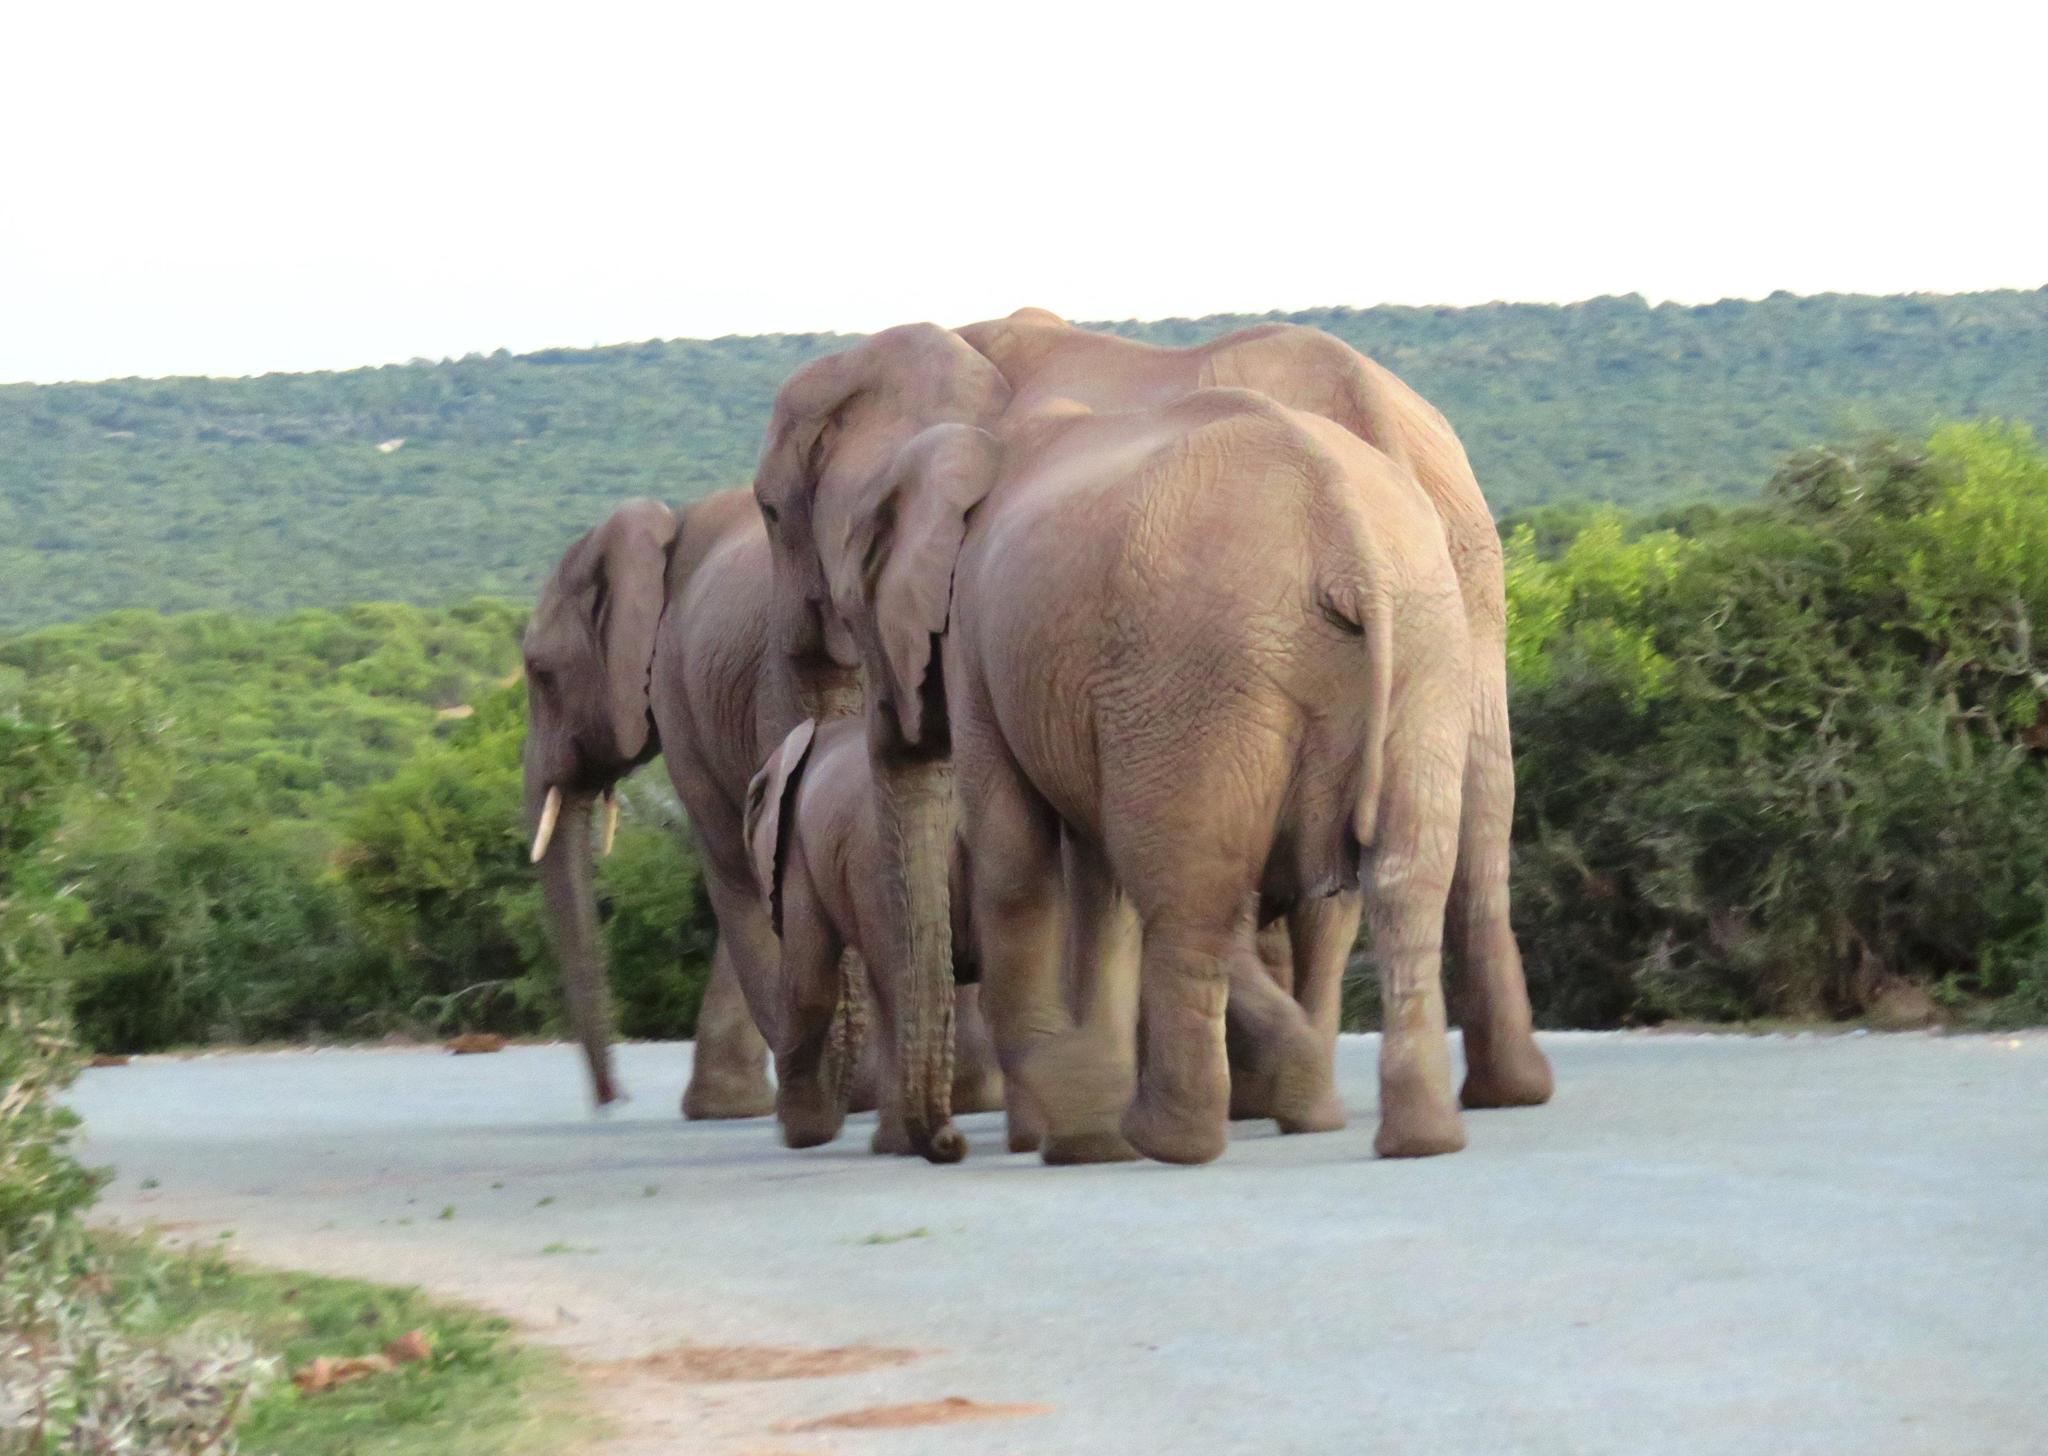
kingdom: Animalia
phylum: Chordata
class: Mammalia
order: Proboscidea
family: Elephantidae
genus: Loxodonta
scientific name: Loxodonta africana
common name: African elephant
